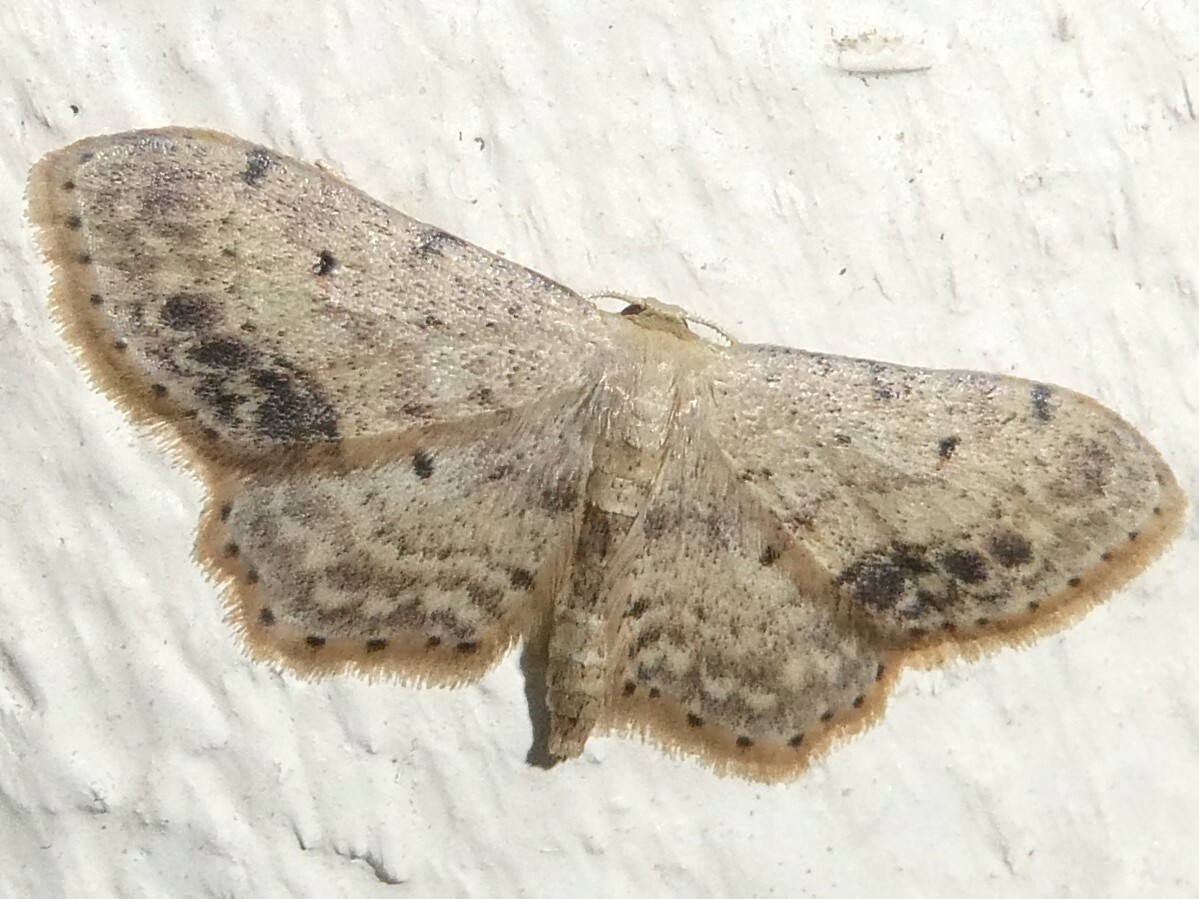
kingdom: Animalia
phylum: Arthropoda
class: Insecta
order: Lepidoptera
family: Geometridae
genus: Idaea
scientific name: Idaea dimidiata
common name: Single-dotted wave
